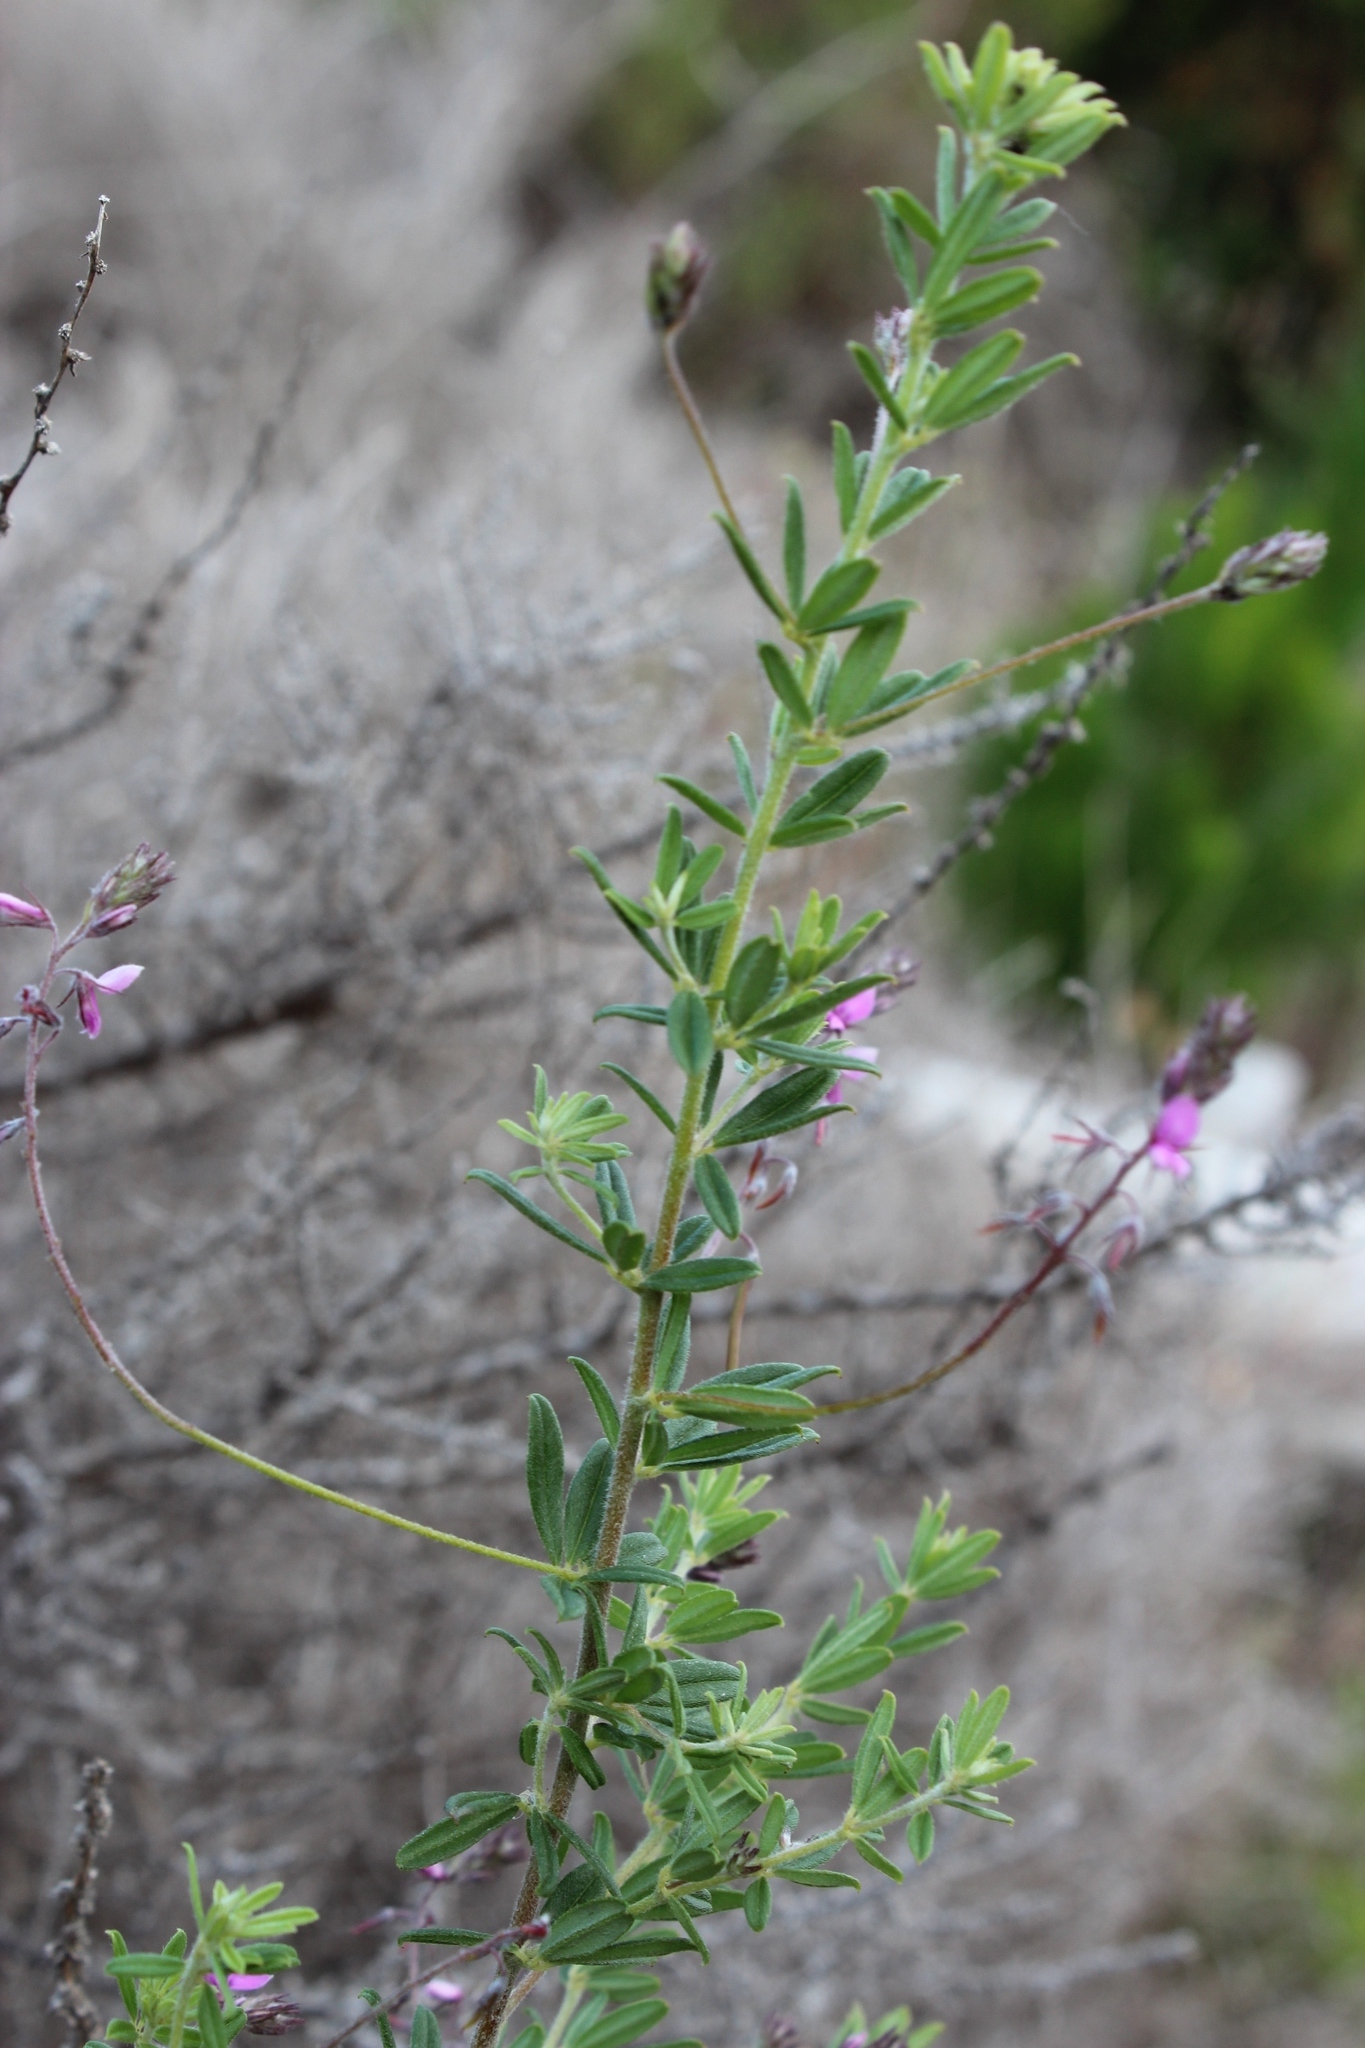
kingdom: Plantae
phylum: Tracheophyta
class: Magnoliopsida
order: Fabales
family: Fabaceae
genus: Indigofera
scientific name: Indigofera filiformis
